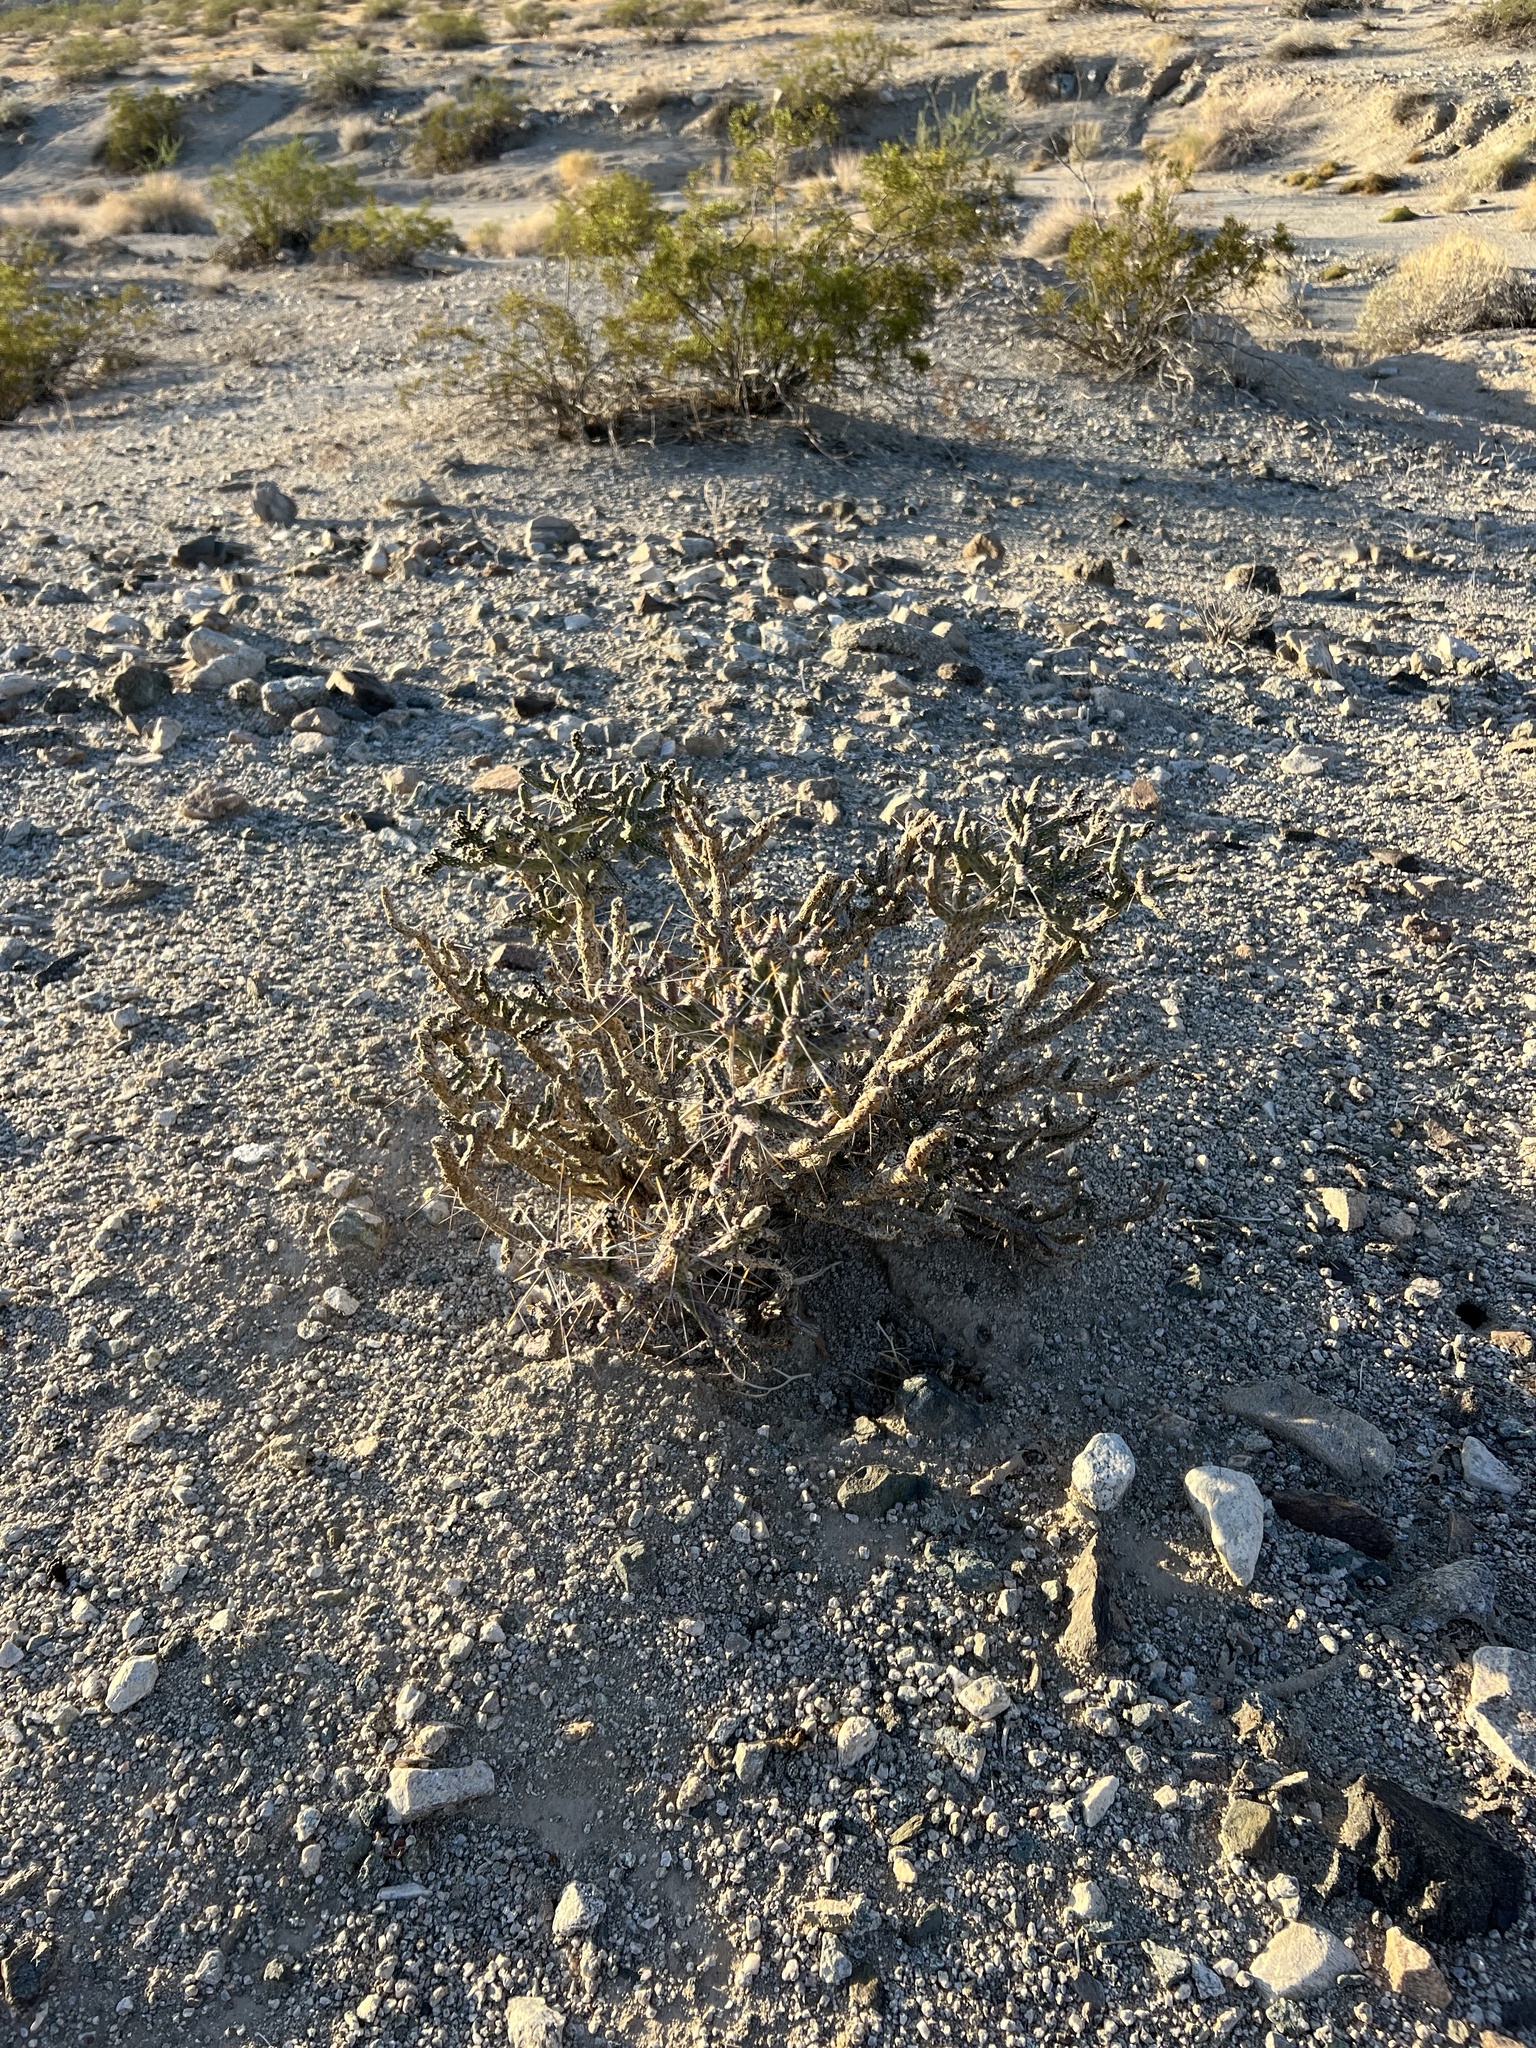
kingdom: Plantae
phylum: Tracheophyta
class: Magnoliopsida
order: Caryophyllales
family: Cactaceae
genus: Cylindropuntia
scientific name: Cylindropuntia ramosissima
